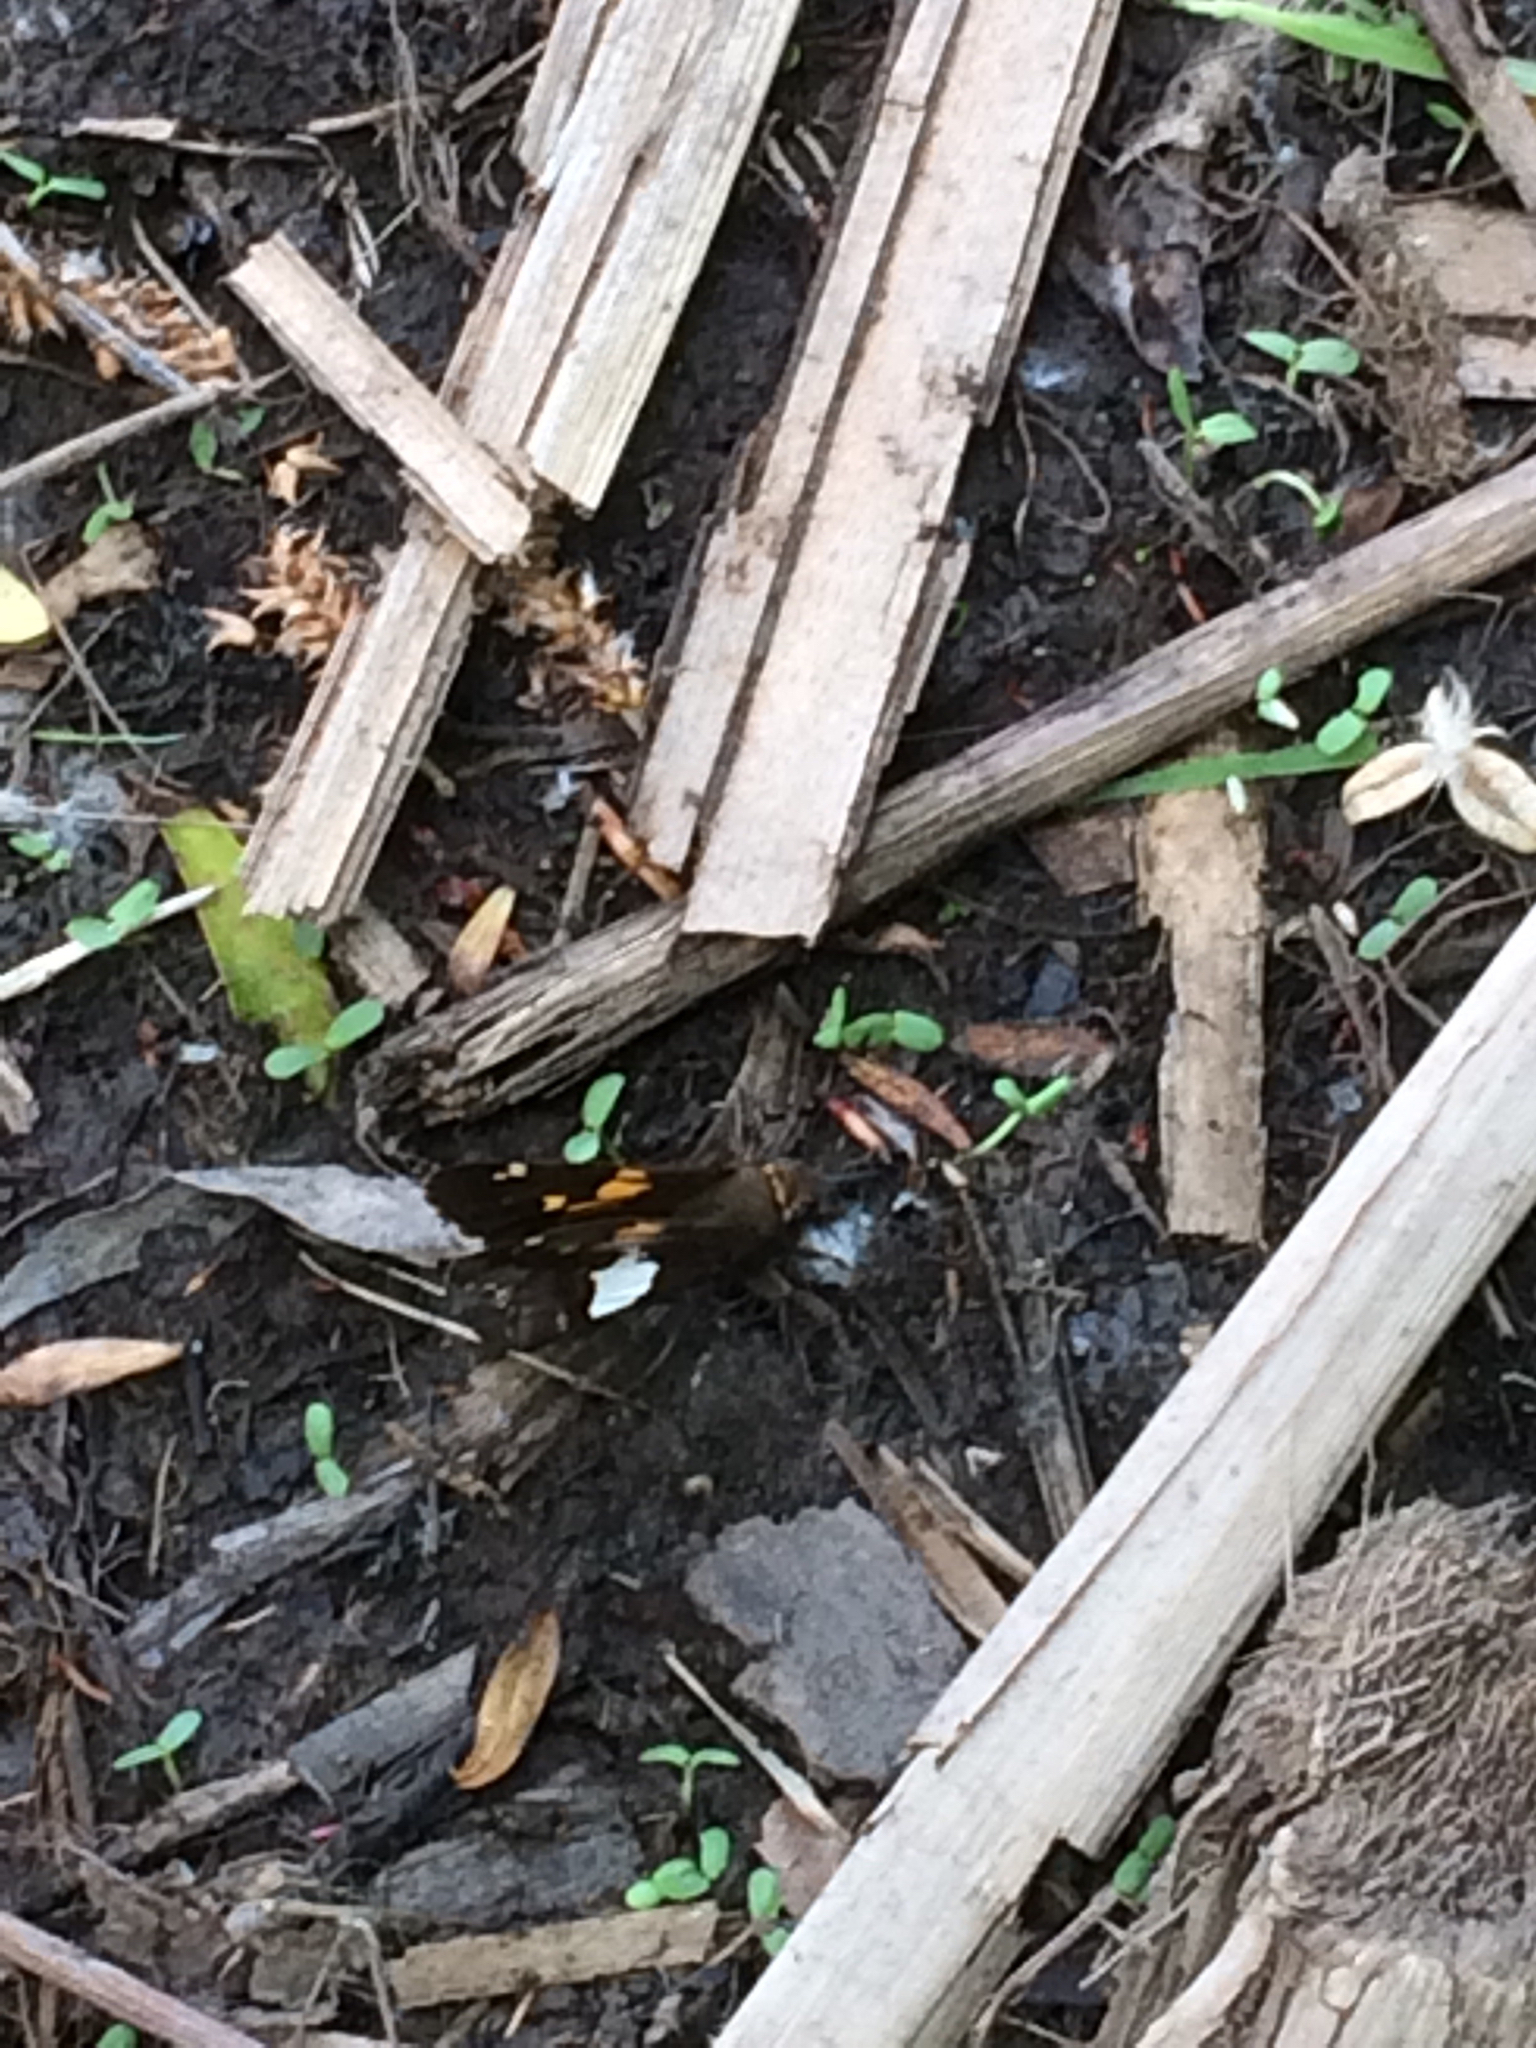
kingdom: Animalia
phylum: Arthropoda
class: Insecta
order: Lepidoptera
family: Hesperiidae
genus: Epargyreus
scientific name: Epargyreus clarus
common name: Silver-spotted skipper
